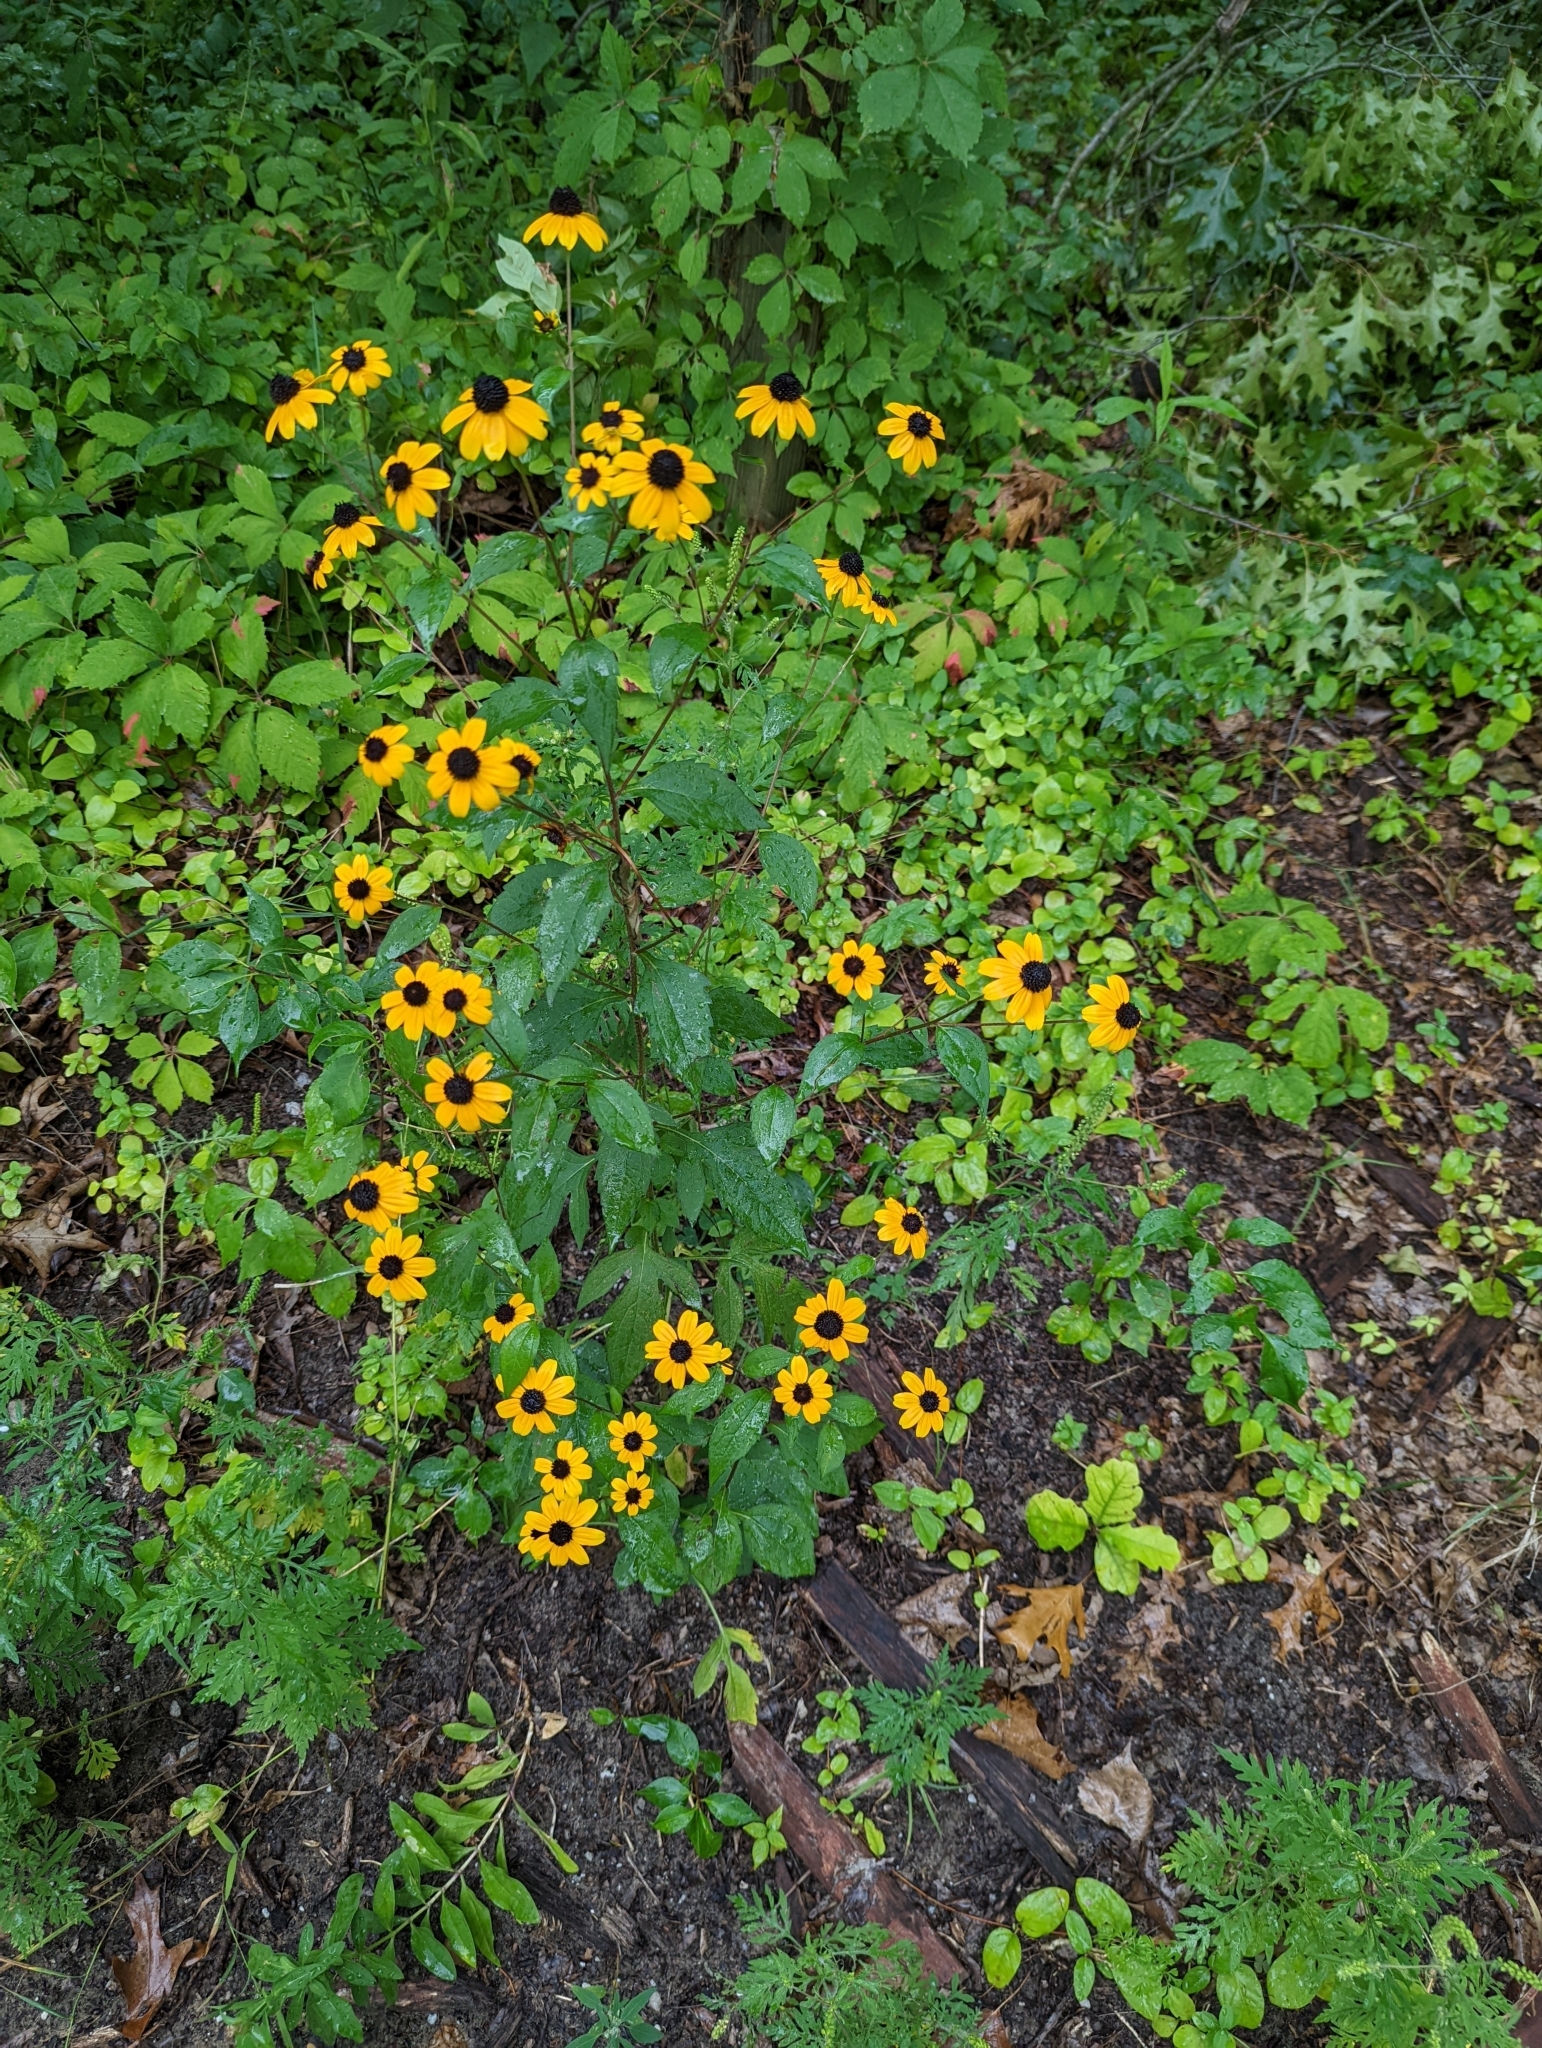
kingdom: Plantae
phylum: Tracheophyta
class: Magnoliopsida
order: Asterales
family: Asteraceae
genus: Rudbeckia
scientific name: Rudbeckia triloba
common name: Thin-leaved coneflower
